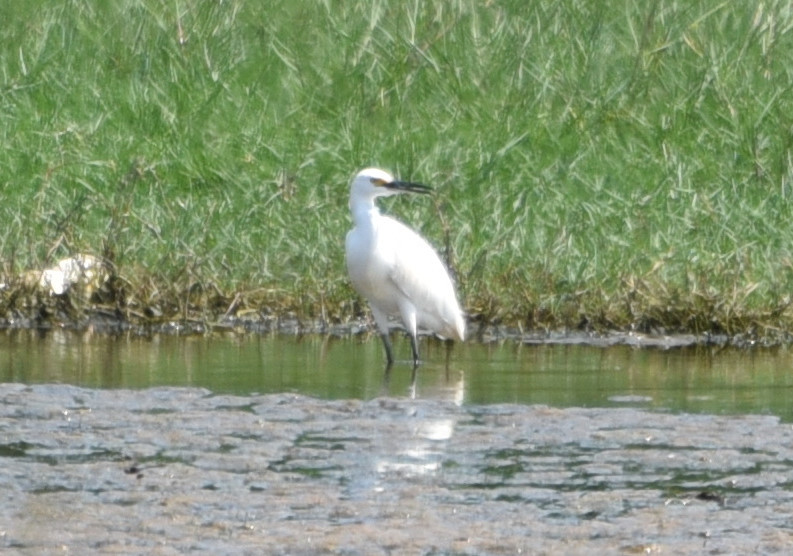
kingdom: Animalia
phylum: Chordata
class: Aves
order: Pelecaniformes
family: Ardeidae
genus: Egretta
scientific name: Egretta thula
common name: Snowy egret
